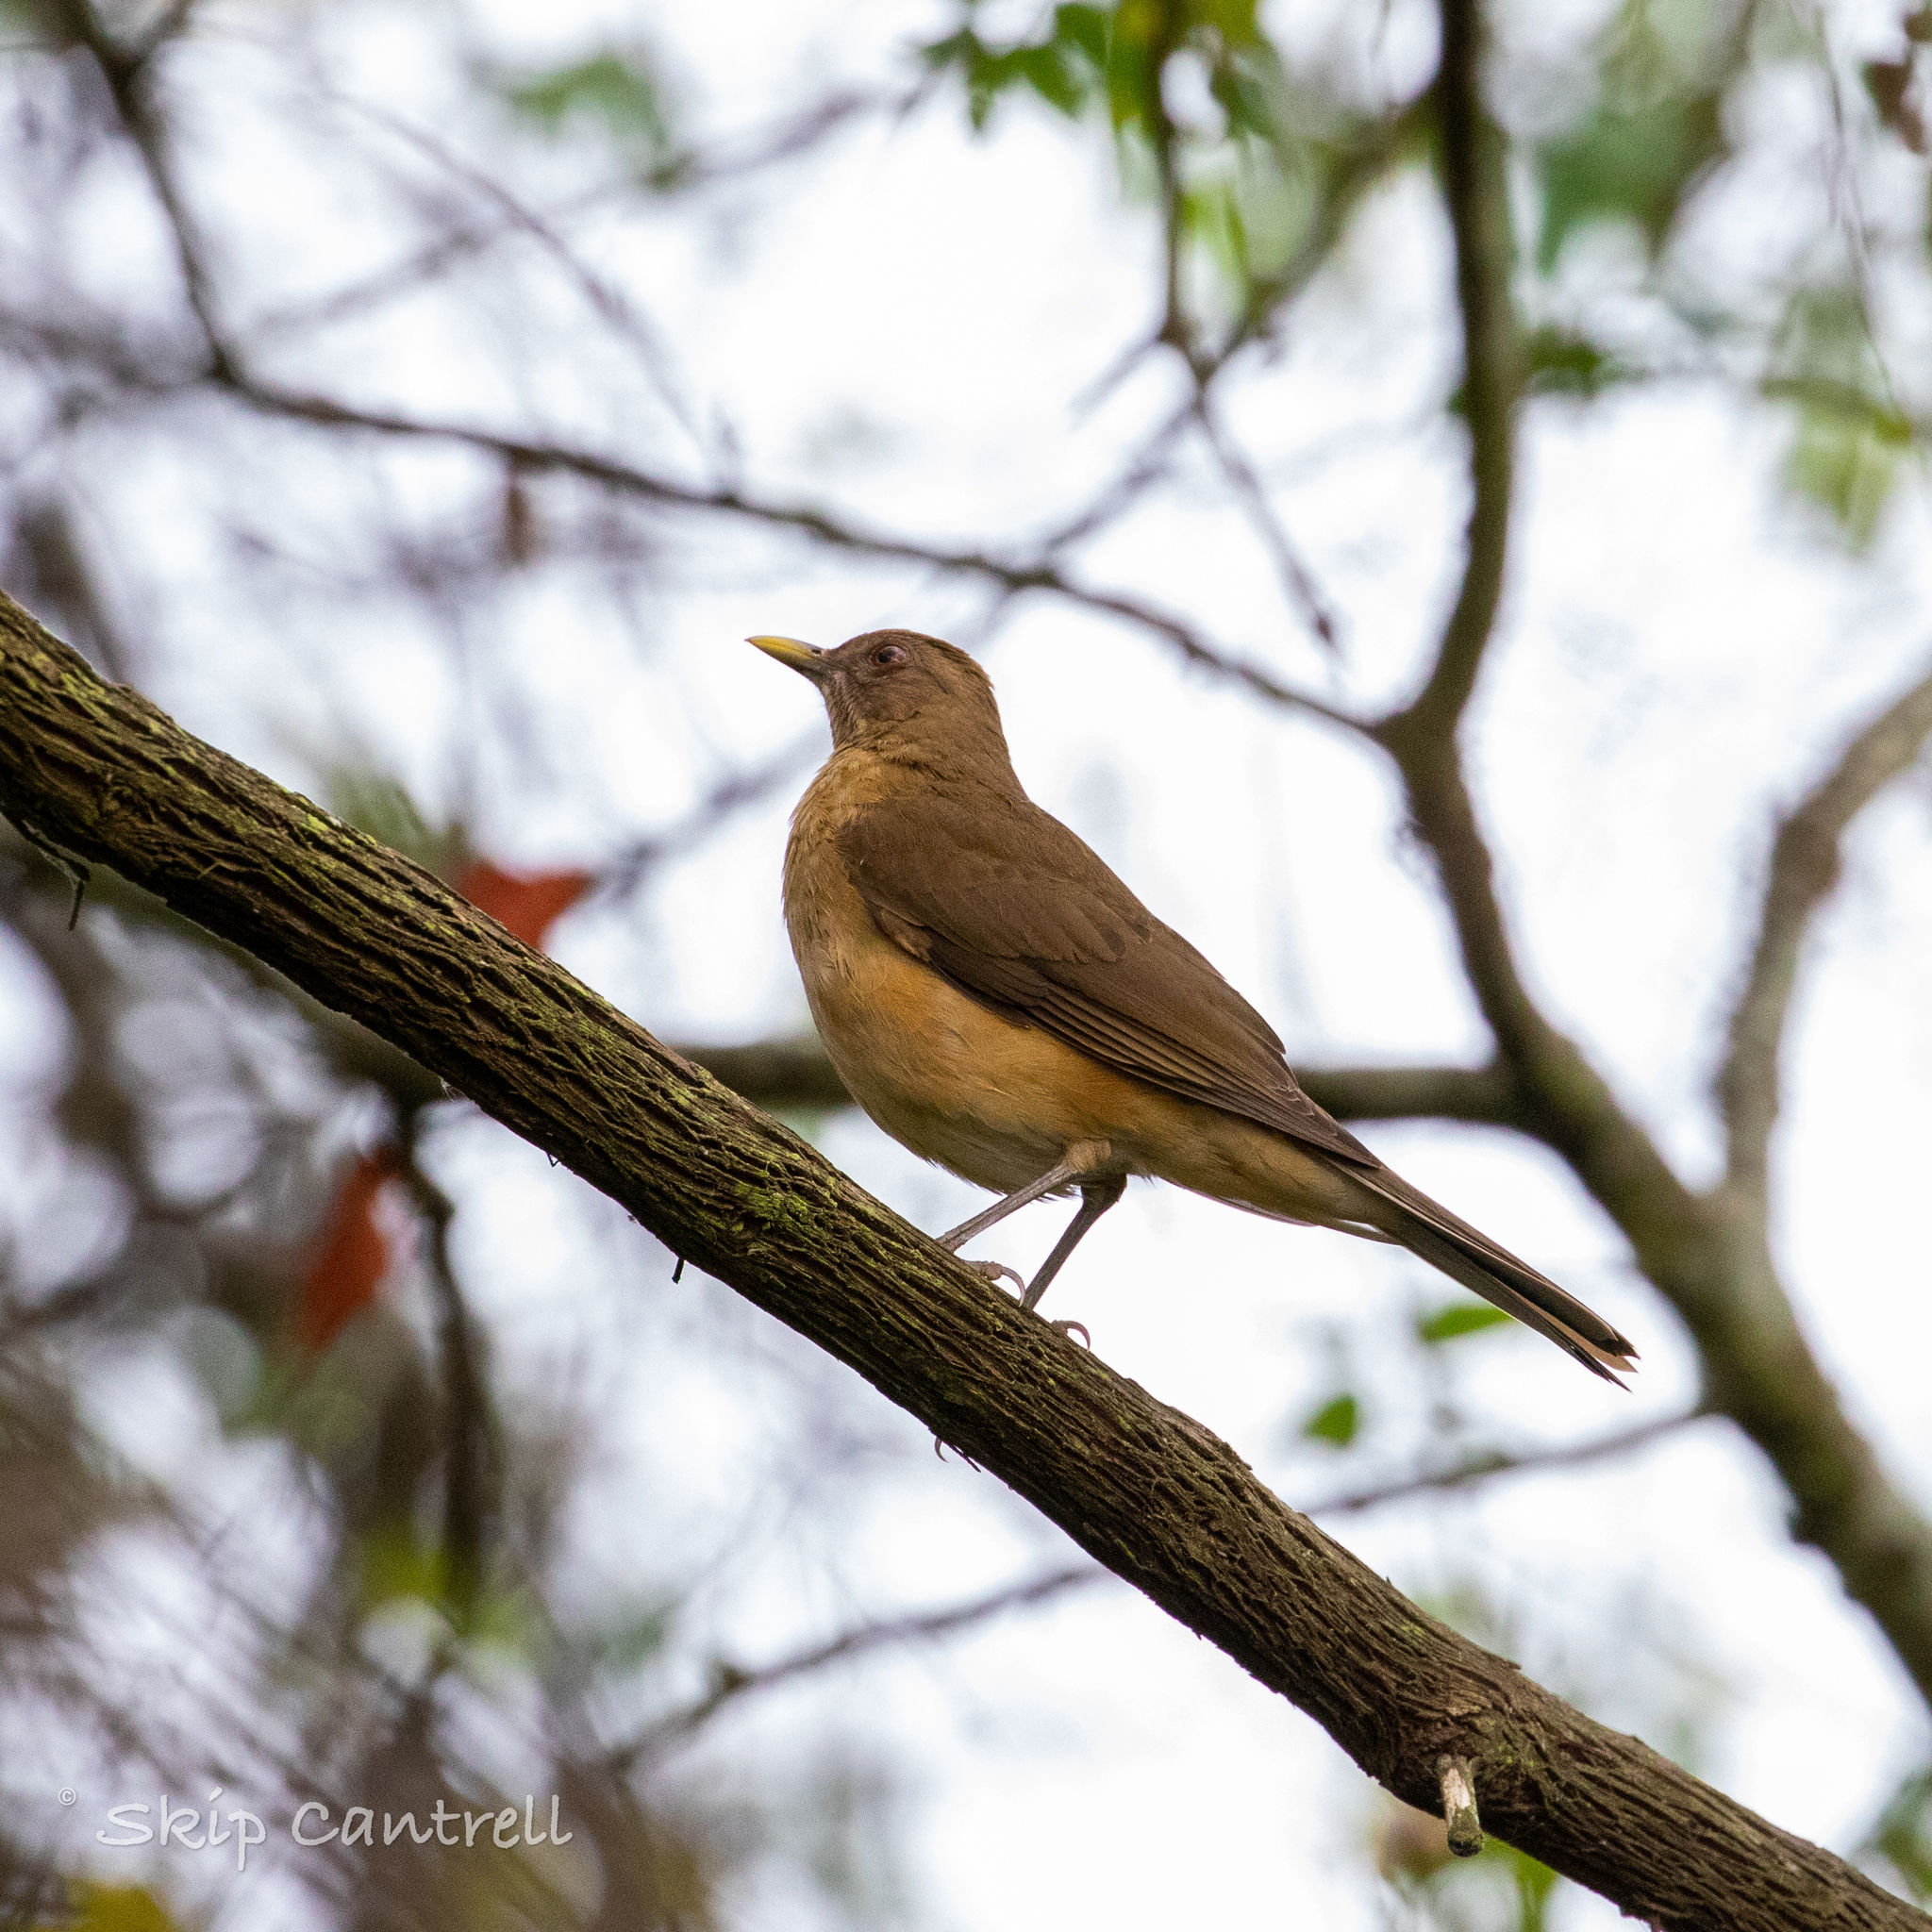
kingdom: Animalia
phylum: Chordata
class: Aves
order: Passeriformes
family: Turdidae
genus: Turdus
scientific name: Turdus grayi
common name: Clay-colored thrush
